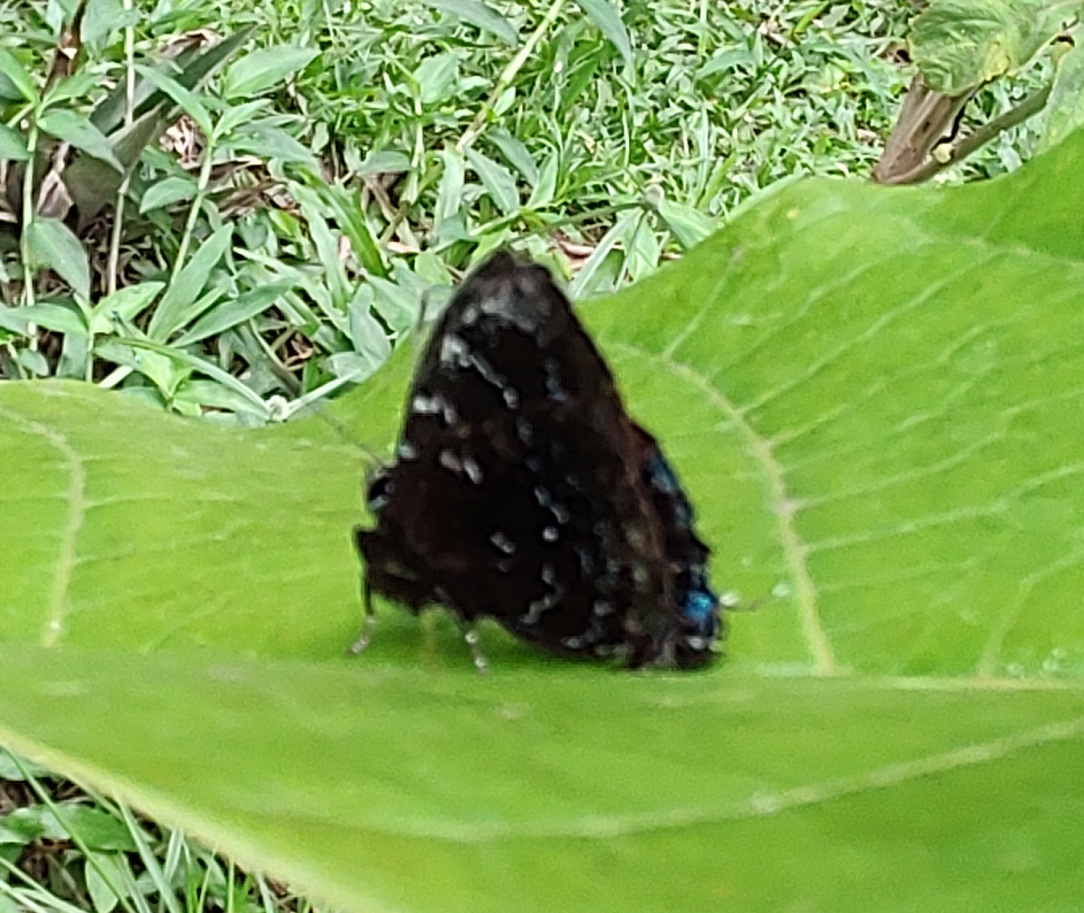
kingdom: Animalia
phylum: Arthropoda
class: Insecta
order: Lepidoptera
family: Lycaenidae
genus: Thecla
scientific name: Thecla thales
